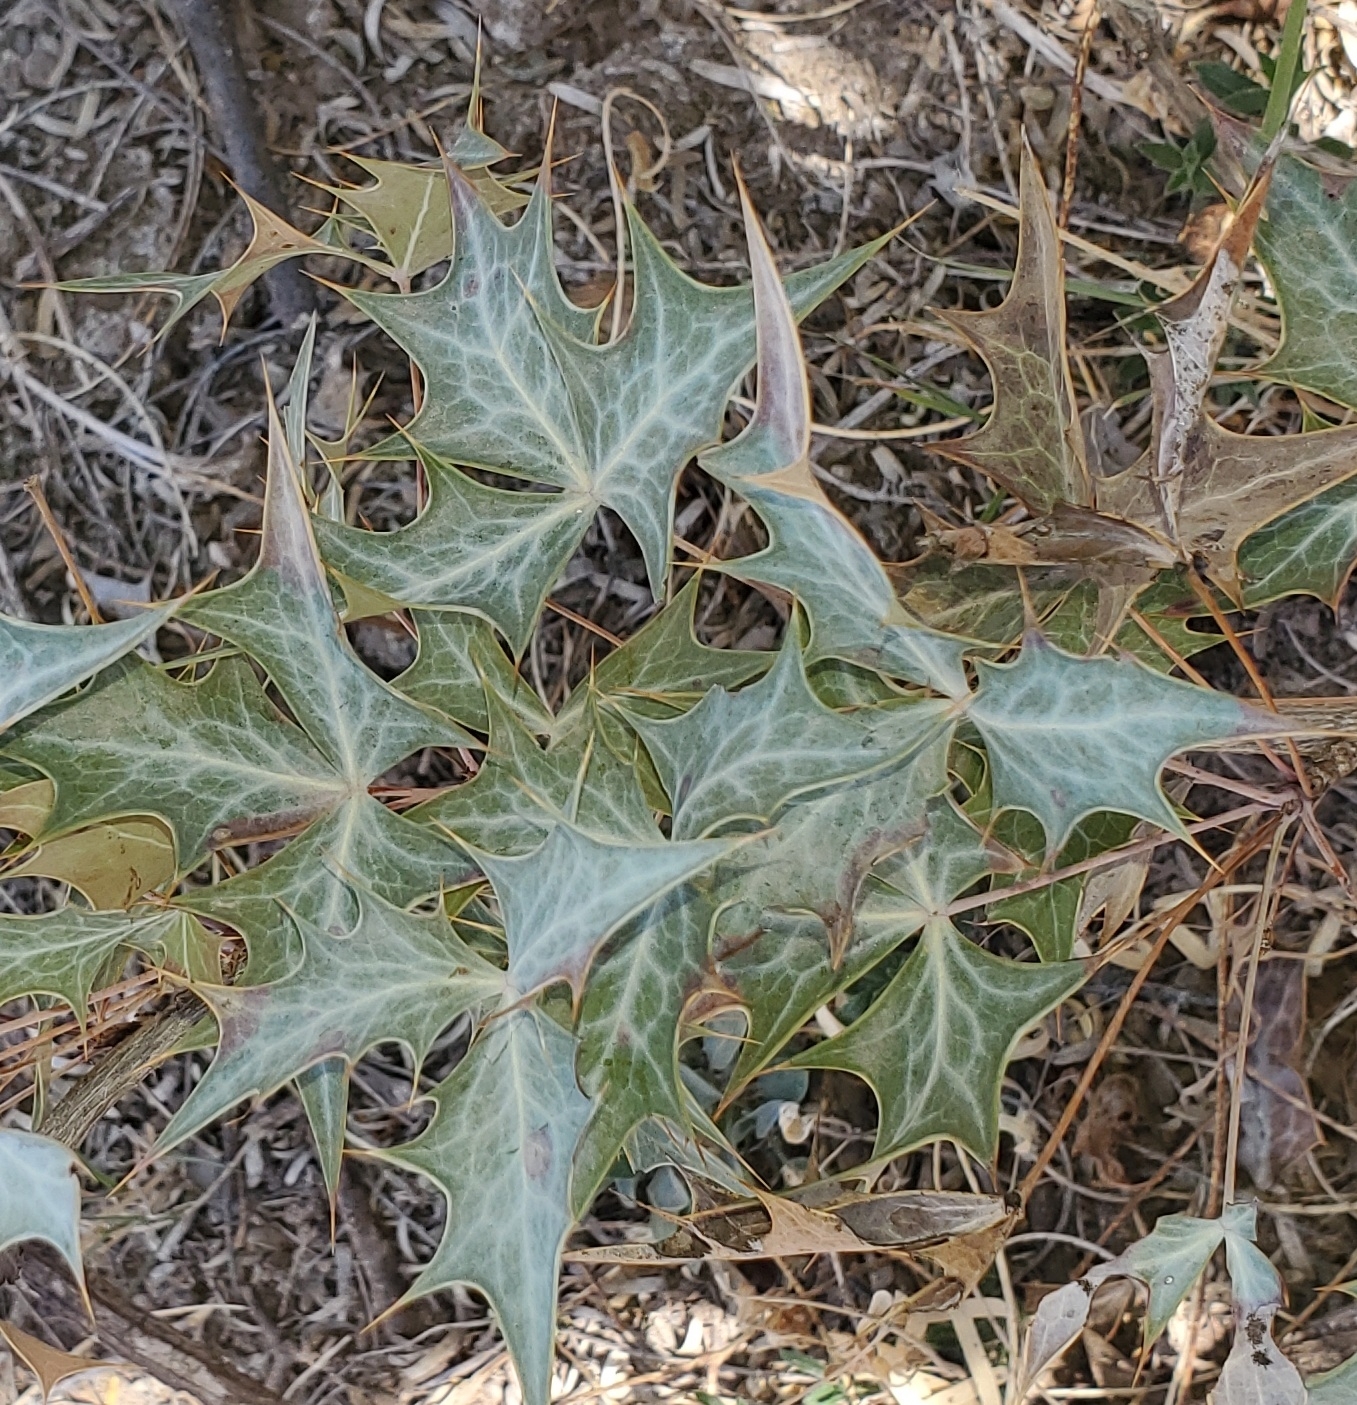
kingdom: Plantae
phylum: Tracheophyta
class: Magnoliopsida
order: Ranunculales
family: Berberidaceae
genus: Alloberberis
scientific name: Alloberberis trifoliolata
